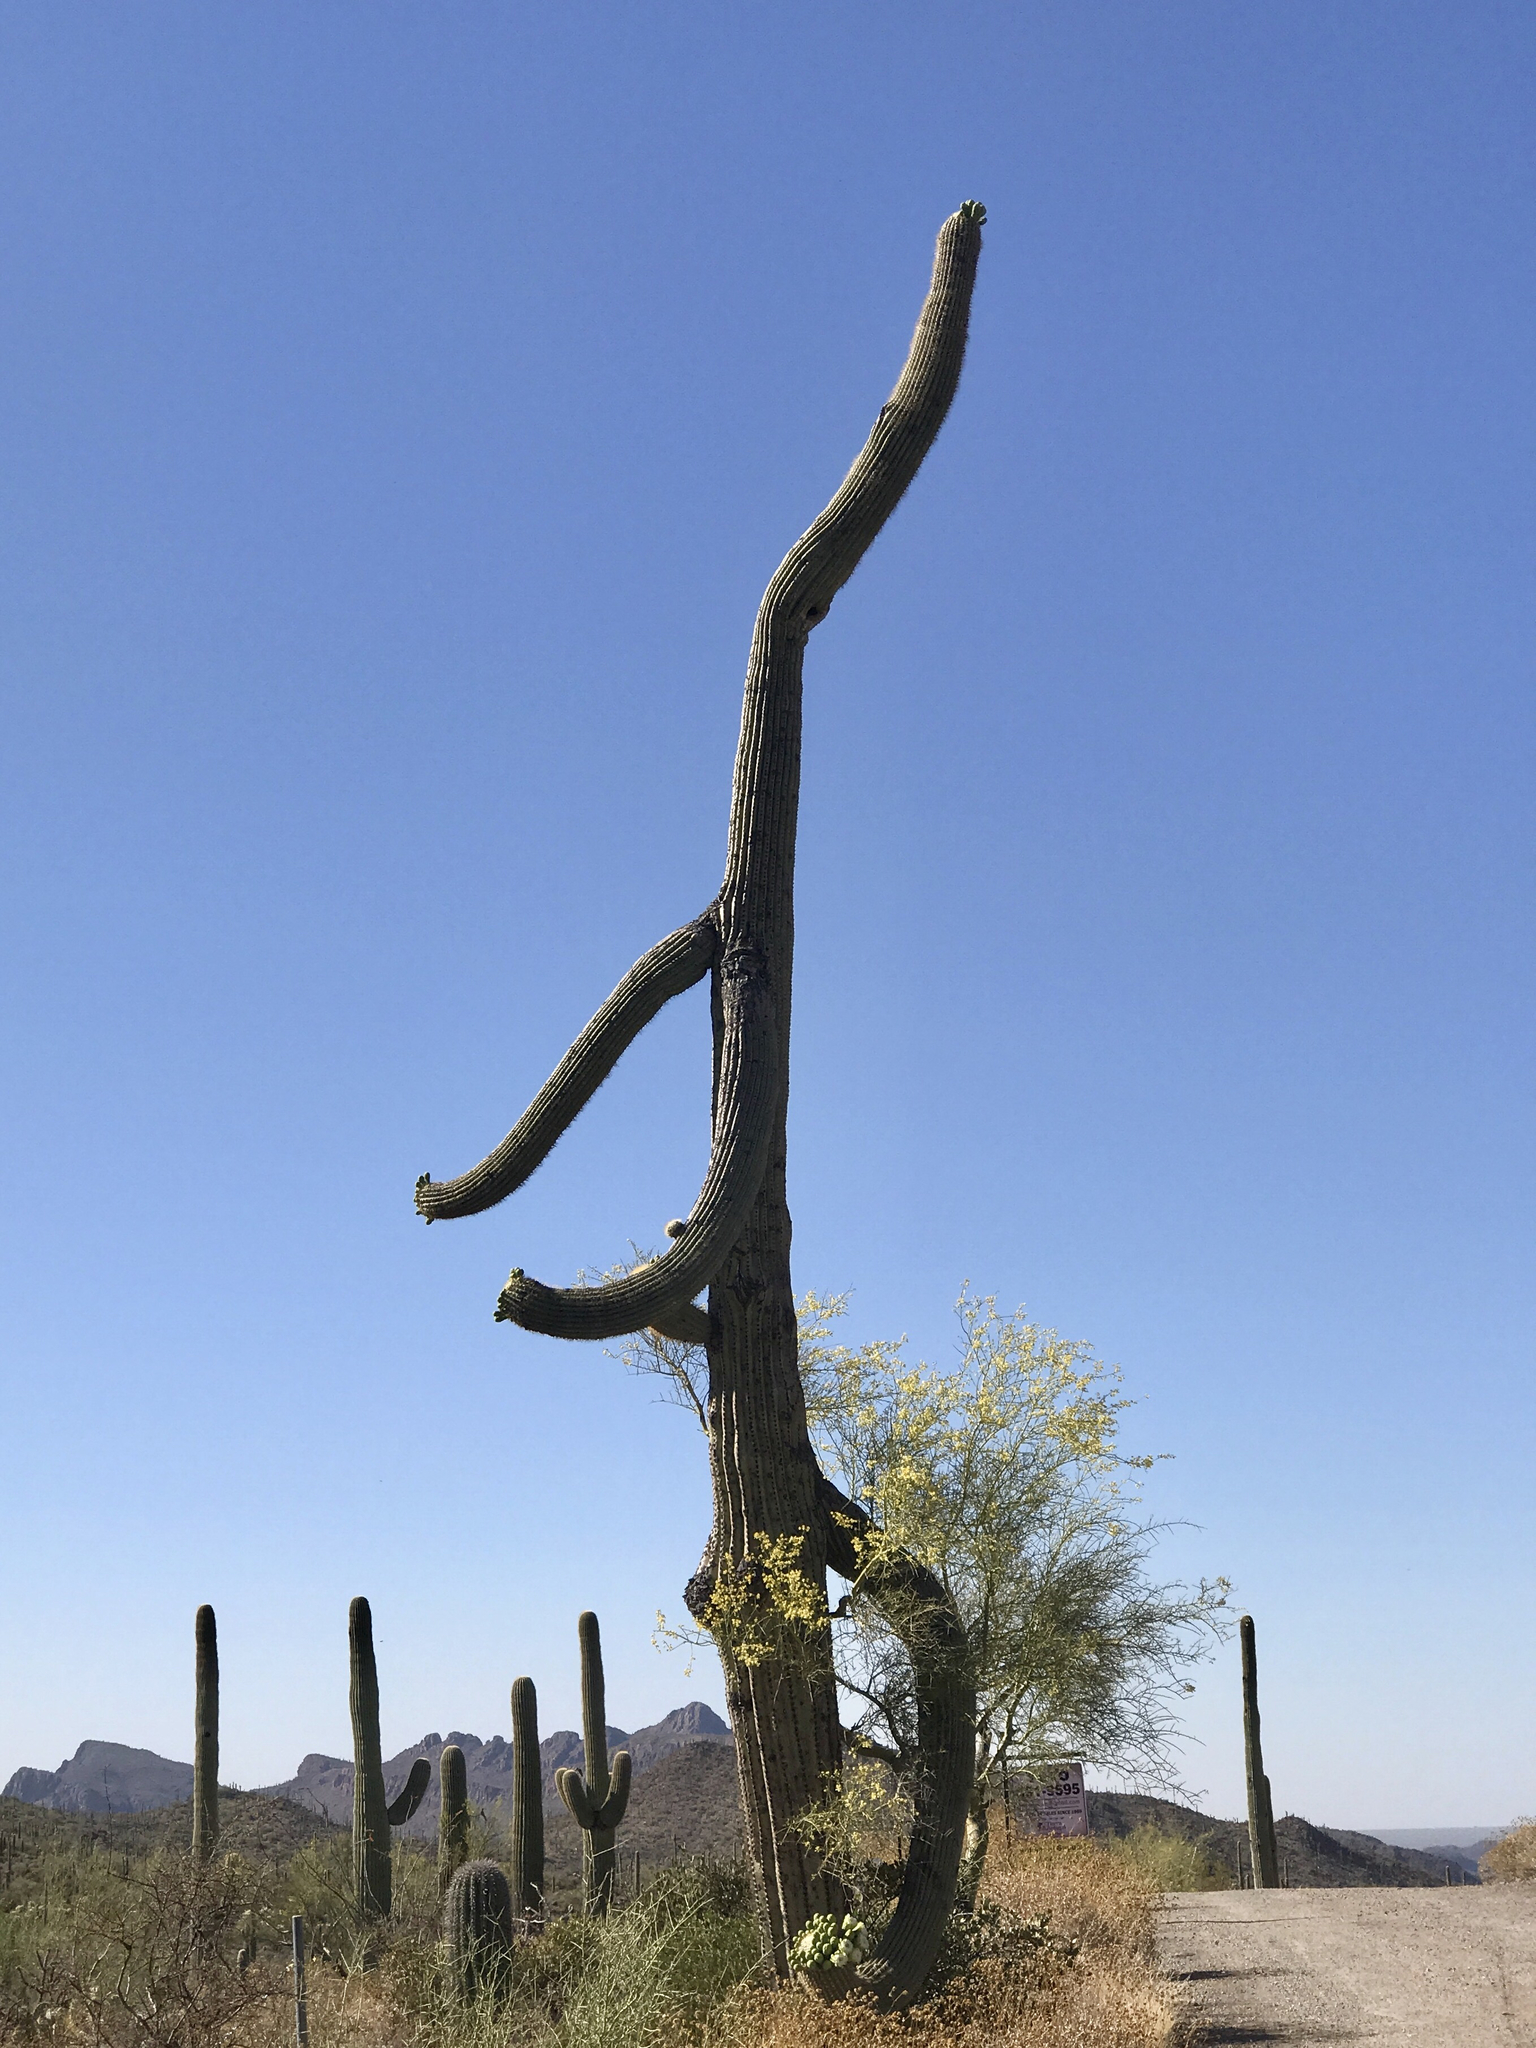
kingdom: Plantae
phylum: Tracheophyta
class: Magnoliopsida
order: Caryophyllales
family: Cactaceae
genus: Carnegiea
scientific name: Carnegiea gigantea
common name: Saguaro
